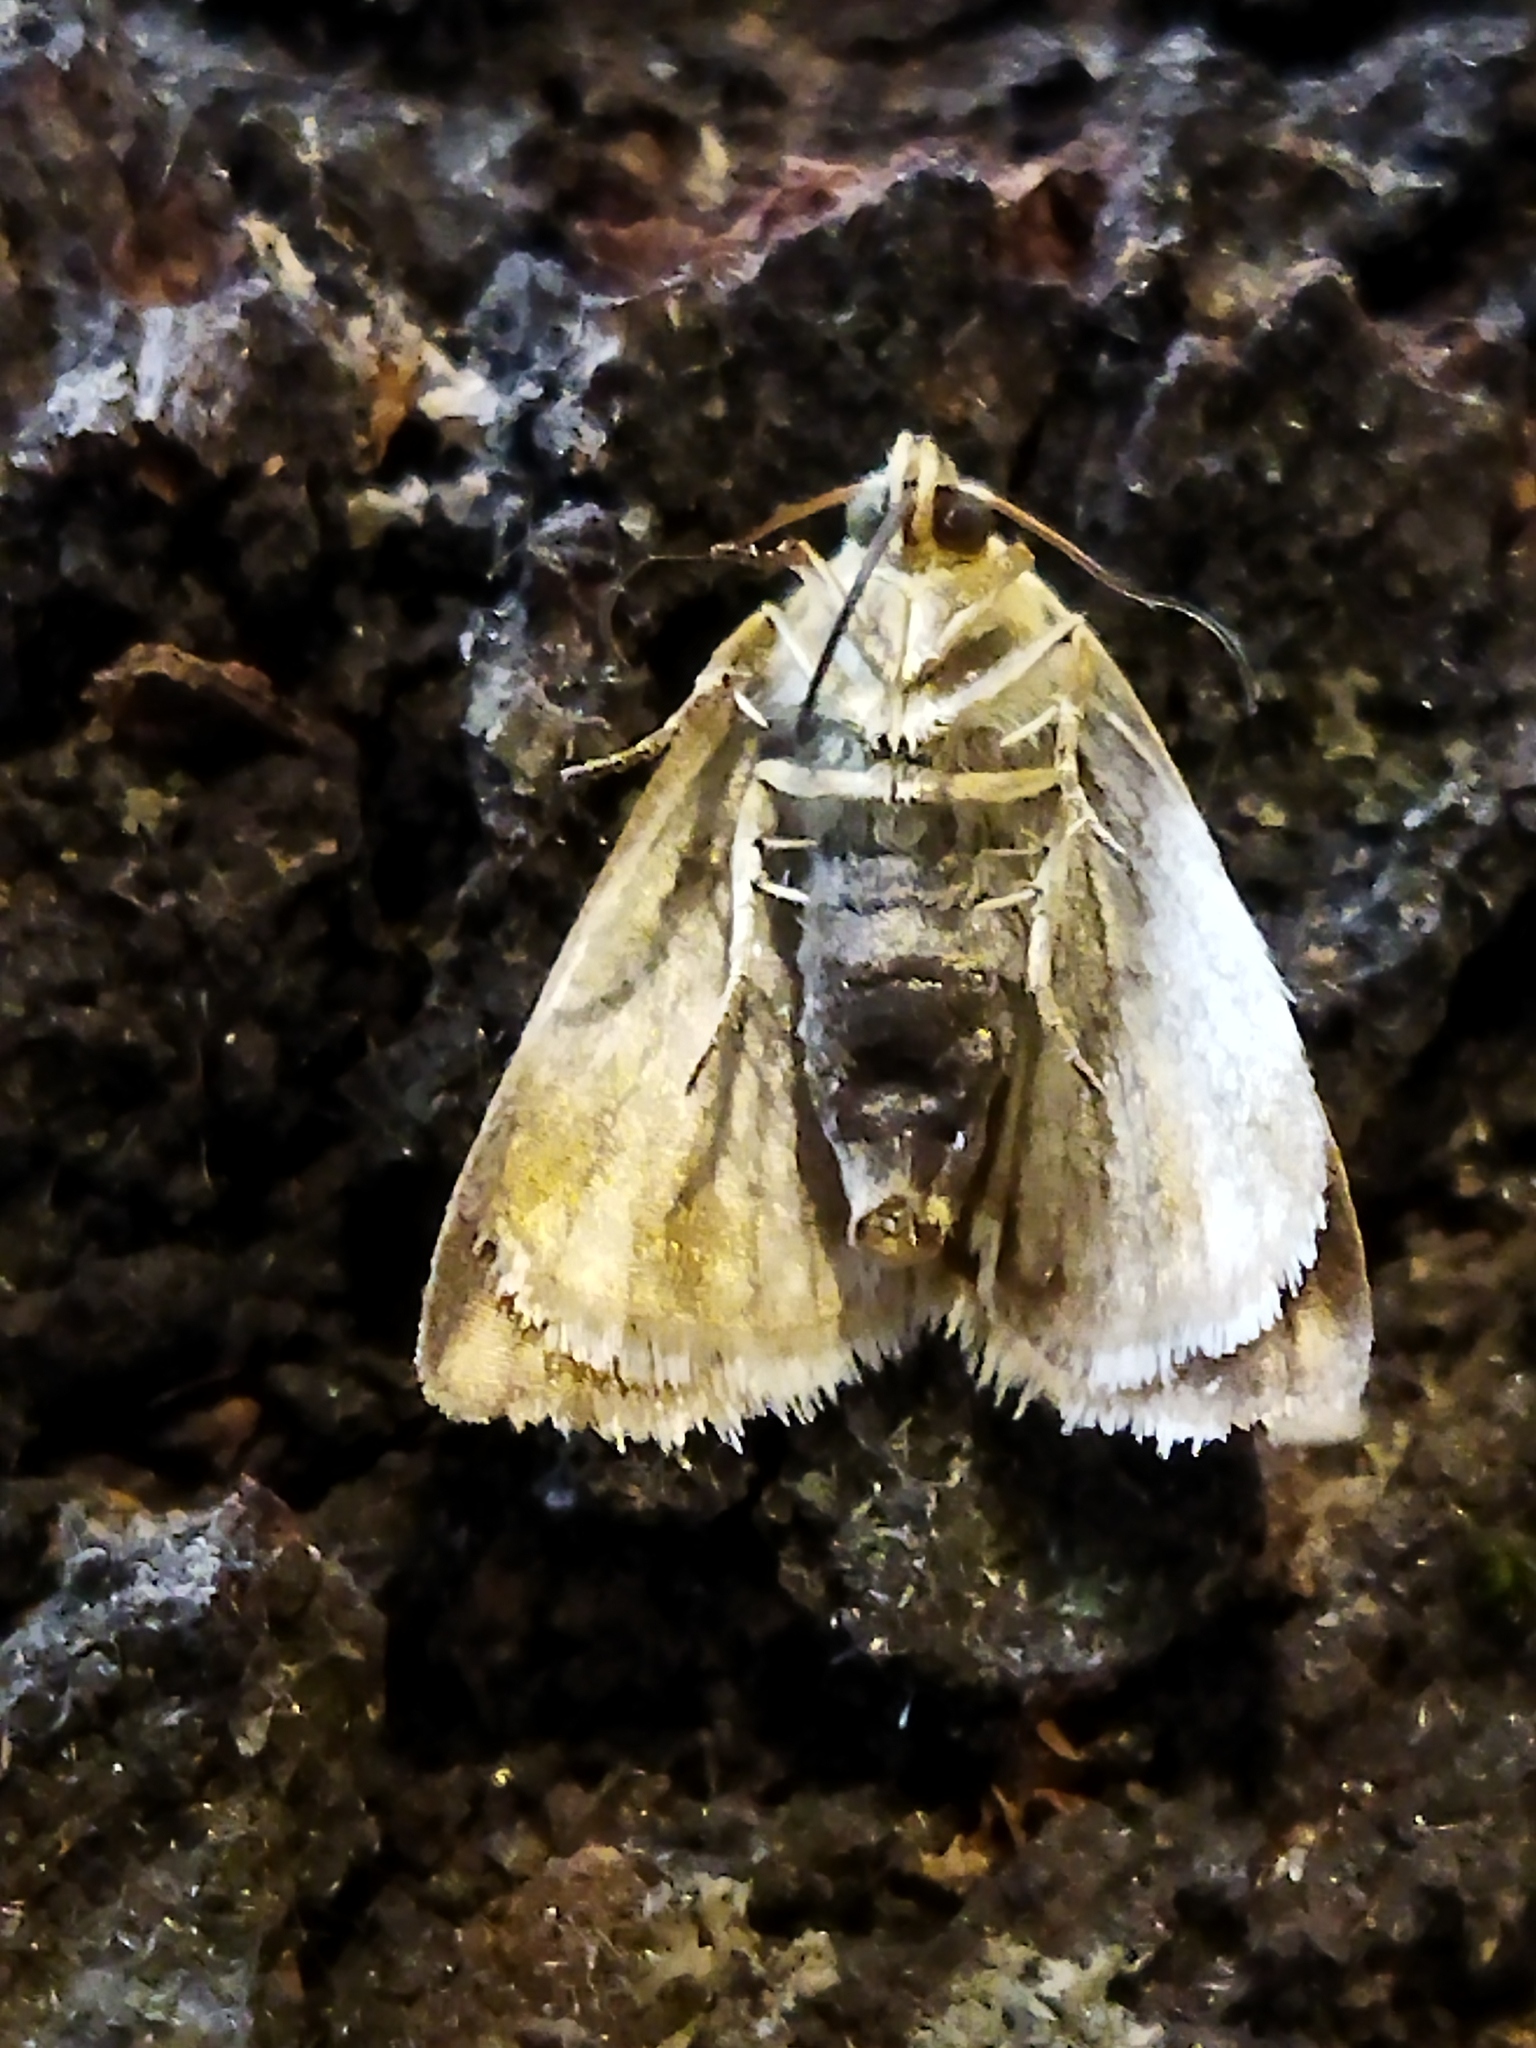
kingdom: Animalia
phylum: Arthropoda
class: Insecta
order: Lepidoptera
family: Noctuidae
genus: Aegle
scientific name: Aegle kaekeritziana
